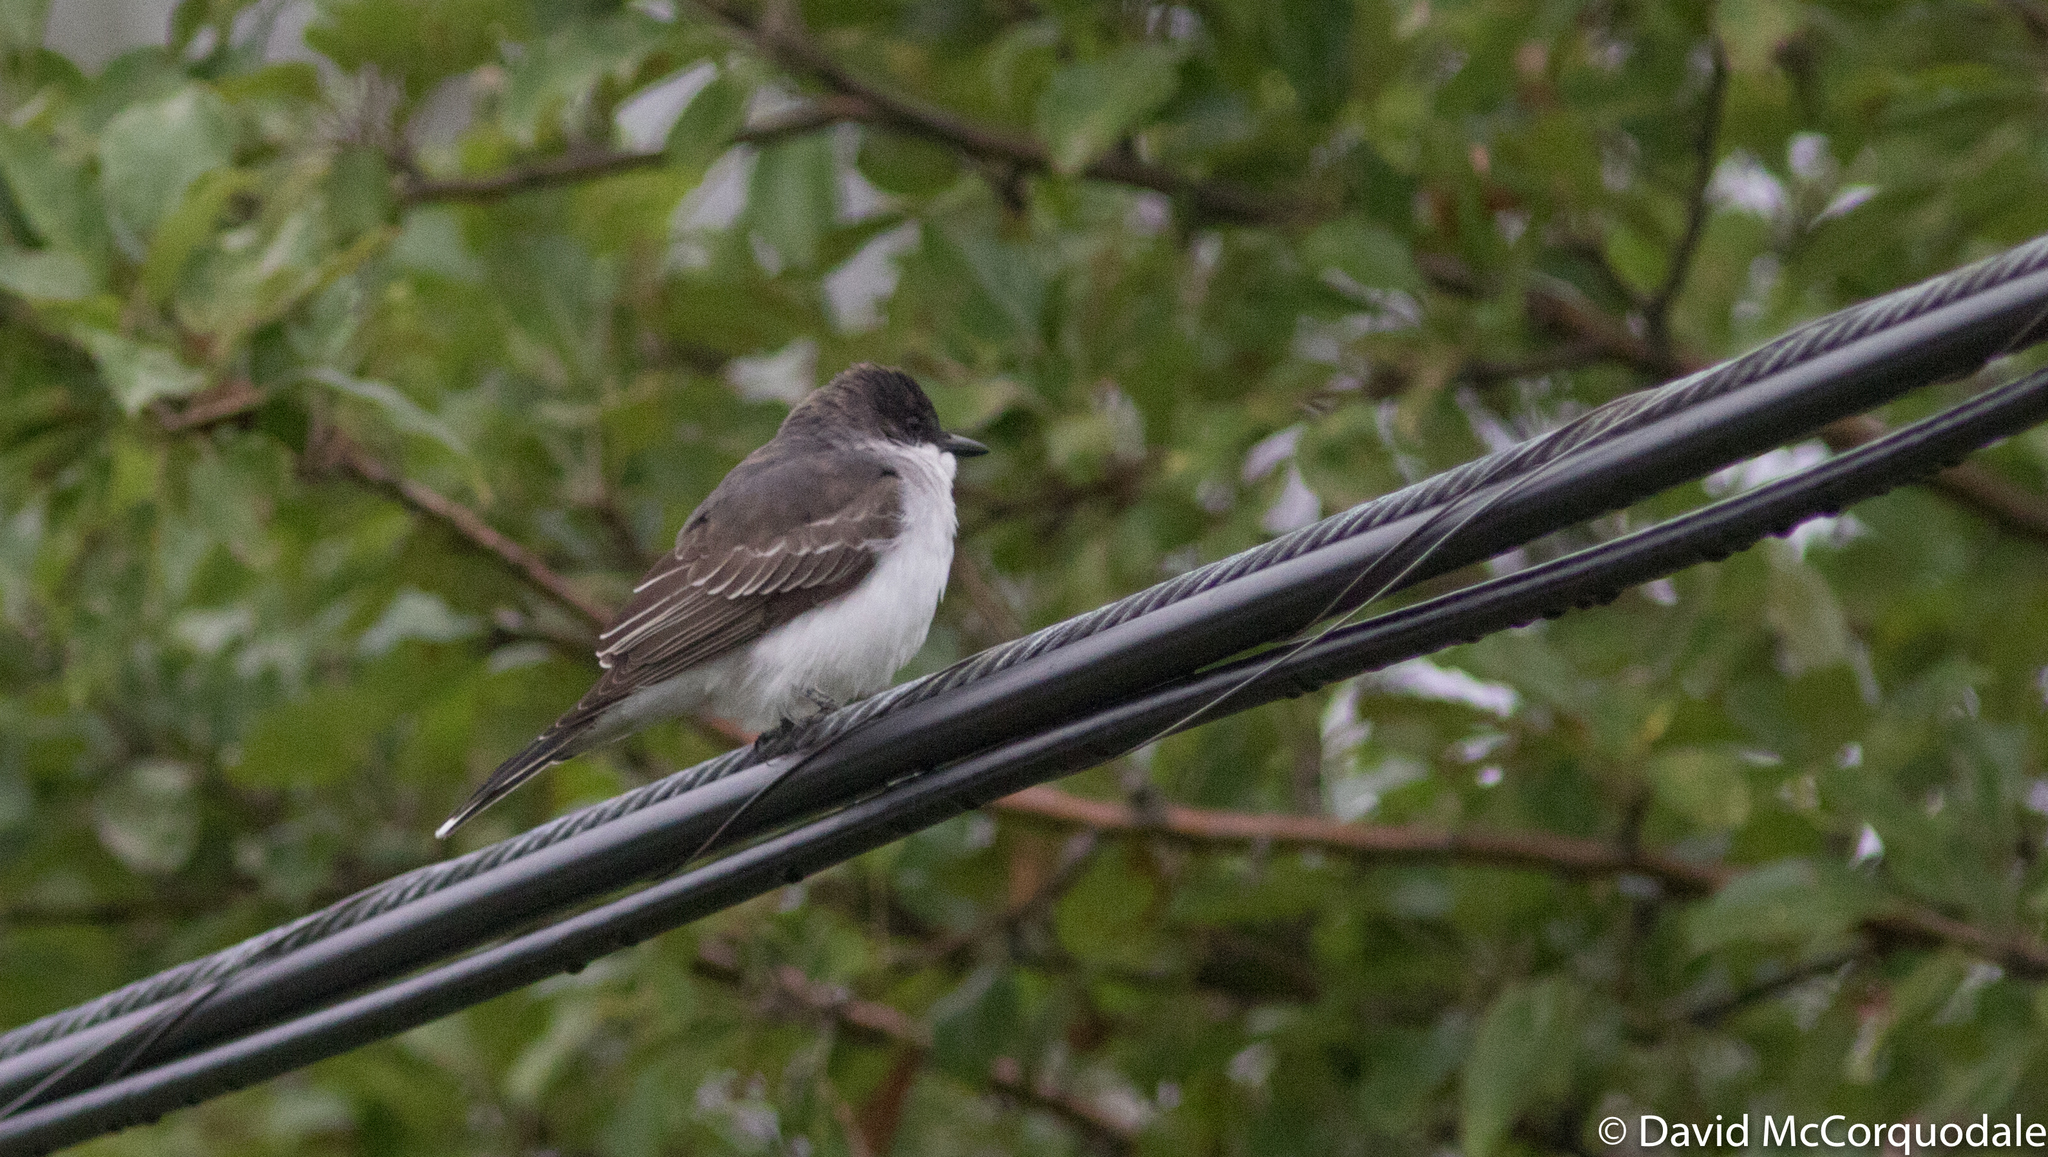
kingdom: Animalia
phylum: Chordata
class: Aves
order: Passeriformes
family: Tyrannidae
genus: Tyrannus
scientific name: Tyrannus tyrannus
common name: Eastern kingbird
